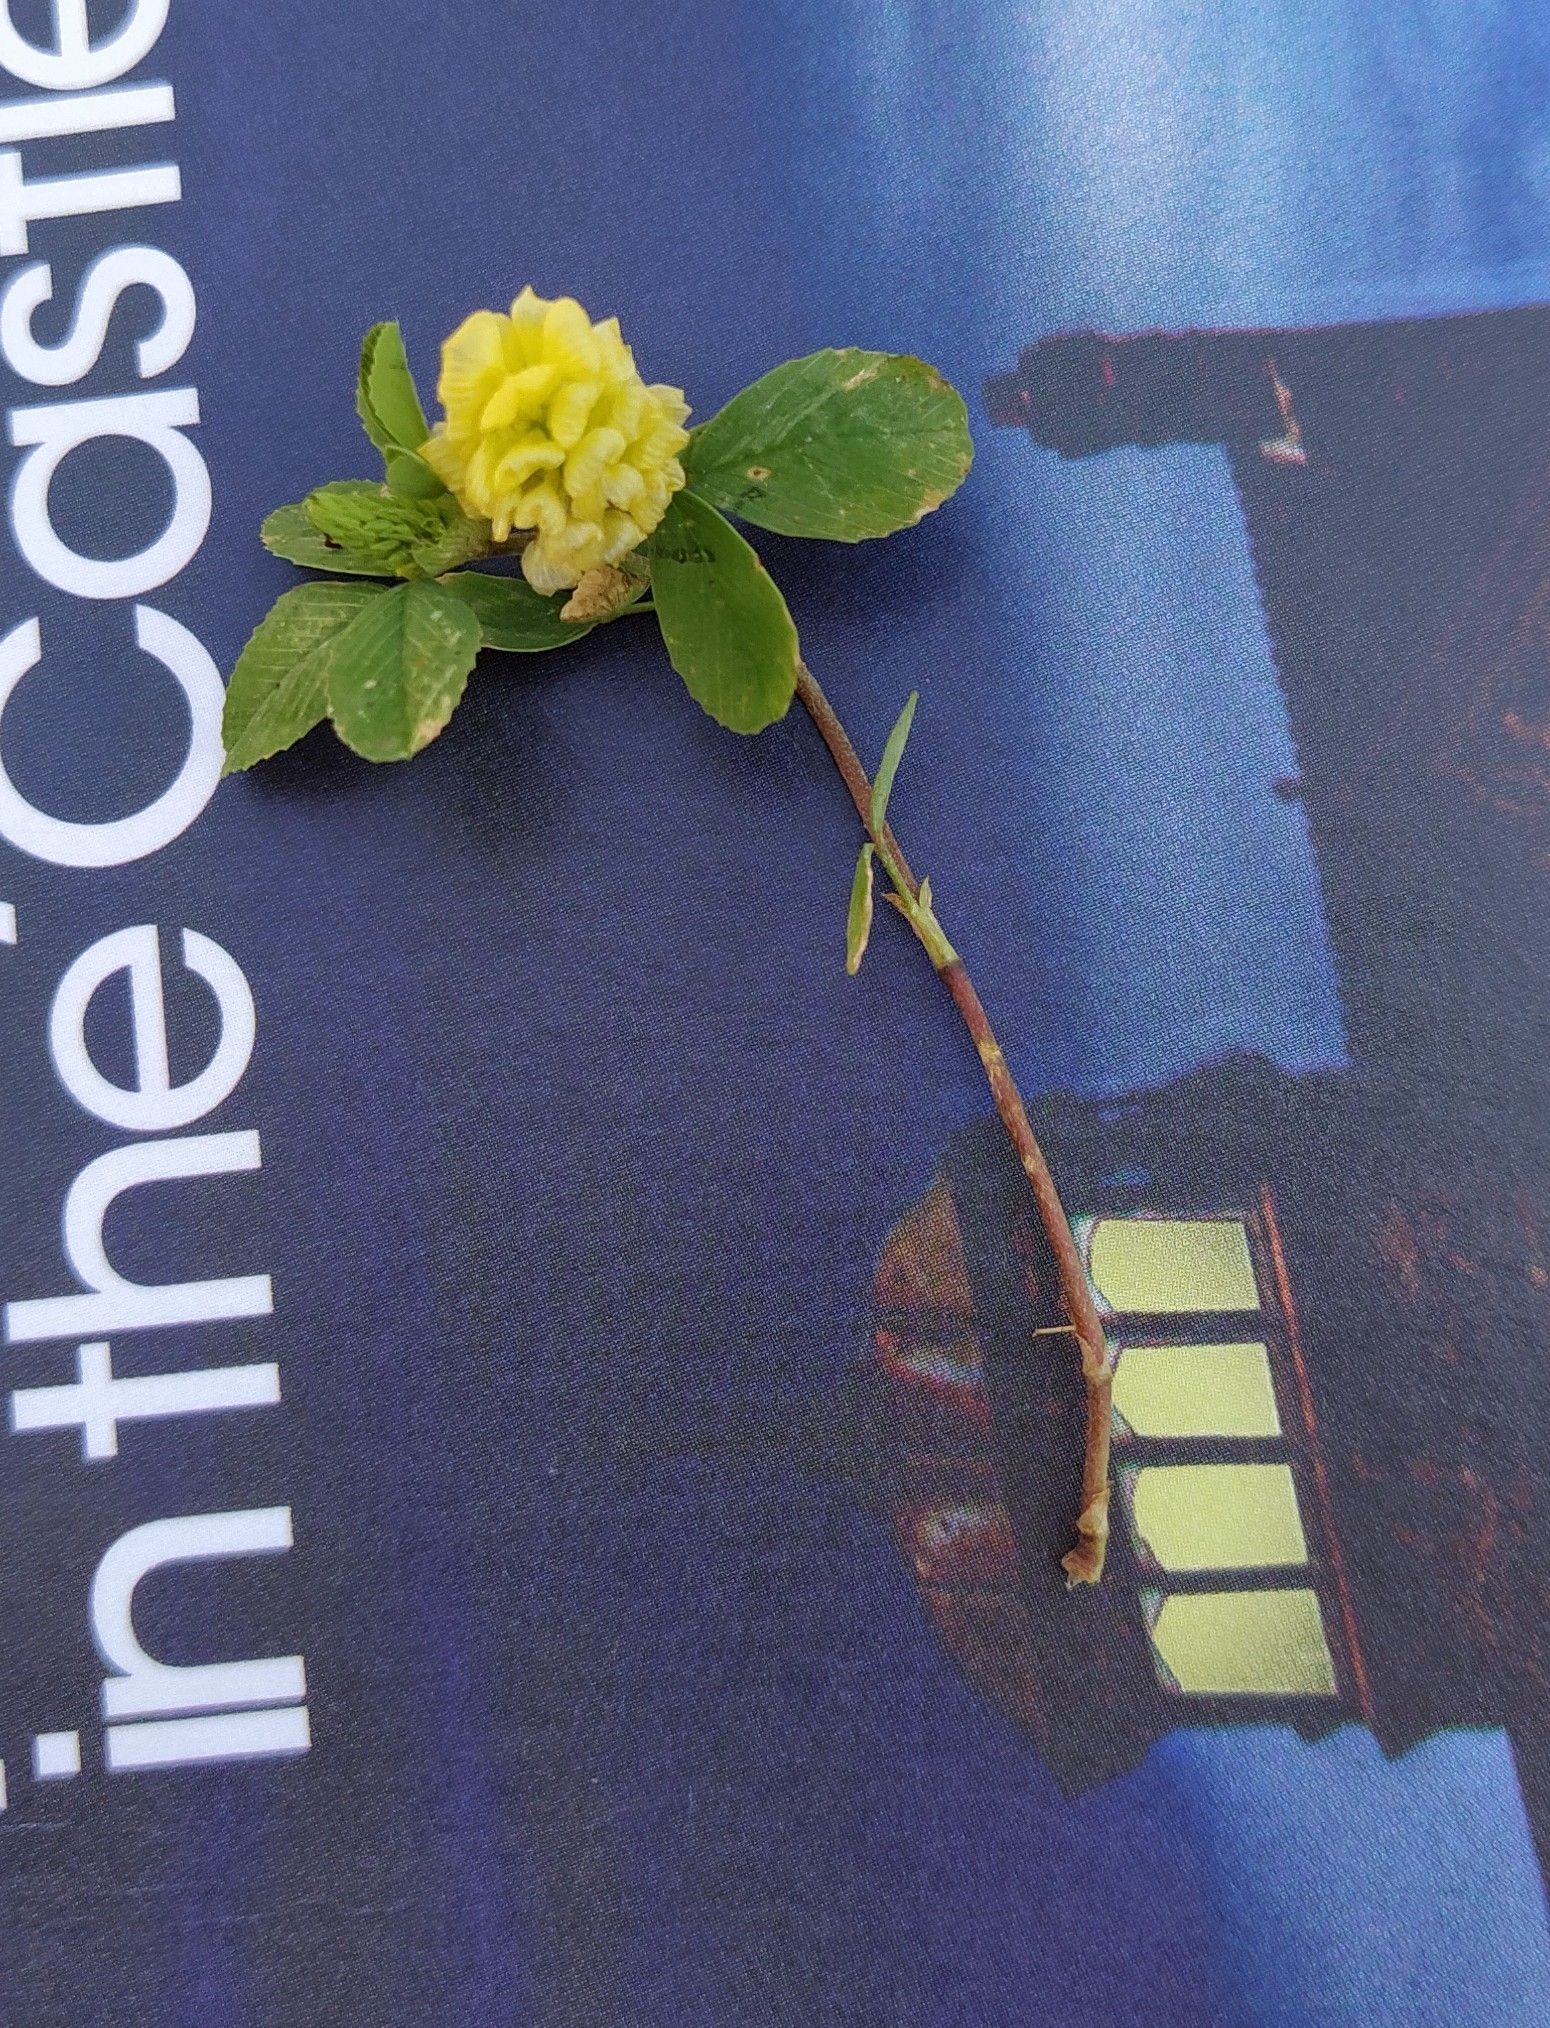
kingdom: Plantae
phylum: Tracheophyta
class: Magnoliopsida
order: Fabales
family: Fabaceae
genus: Trifolium
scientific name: Trifolium campestre
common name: Field clover
